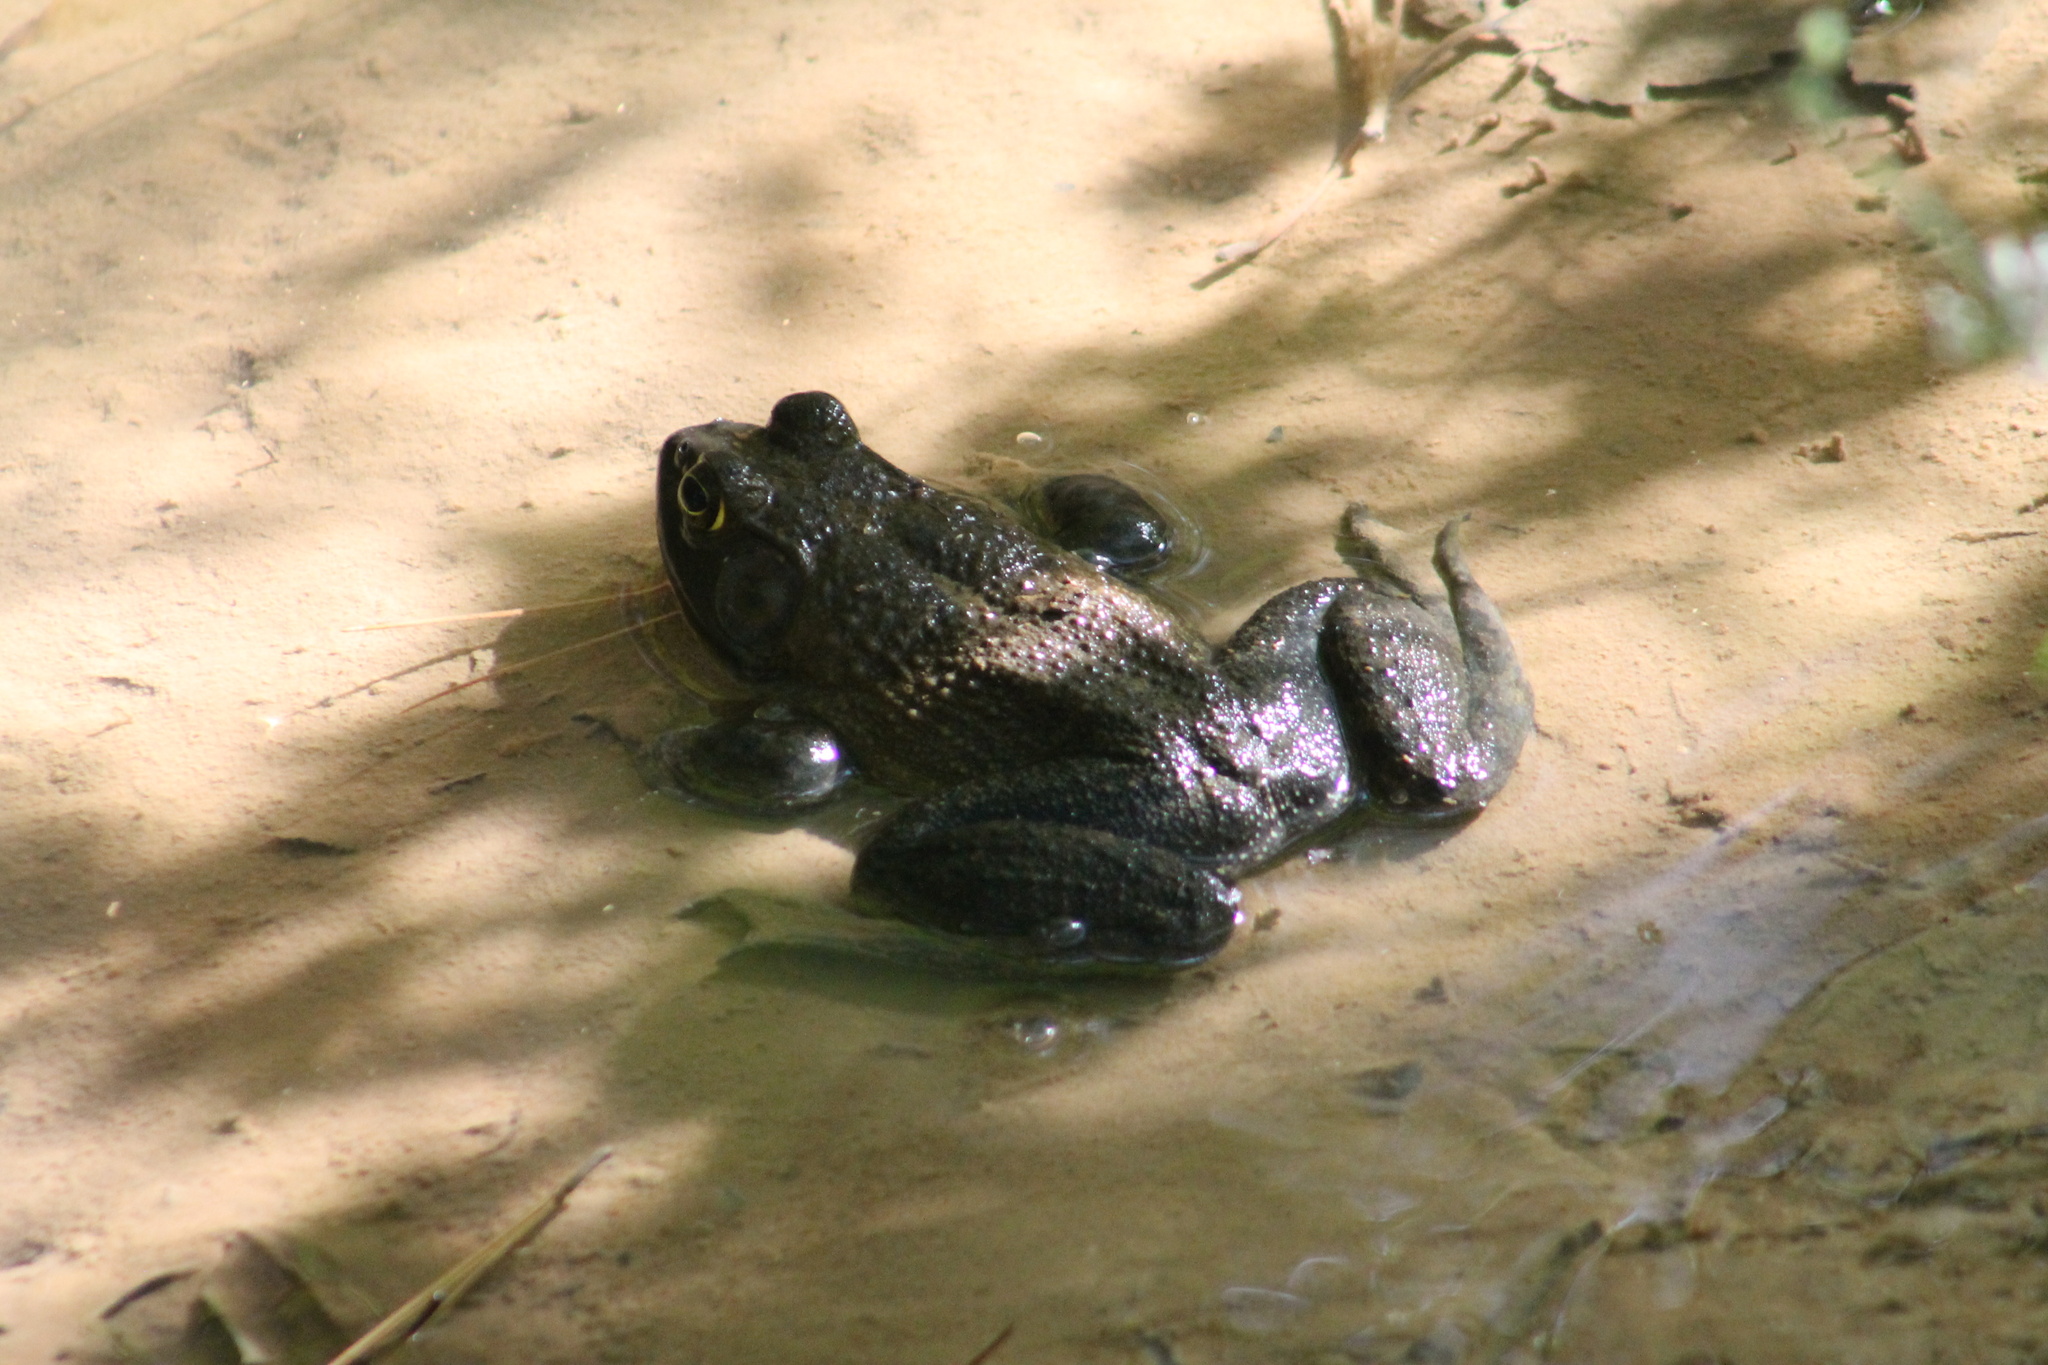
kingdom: Animalia
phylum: Chordata
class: Amphibia
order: Anura
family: Ranidae
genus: Lithobates
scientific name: Lithobates catesbeianus
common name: American bullfrog
